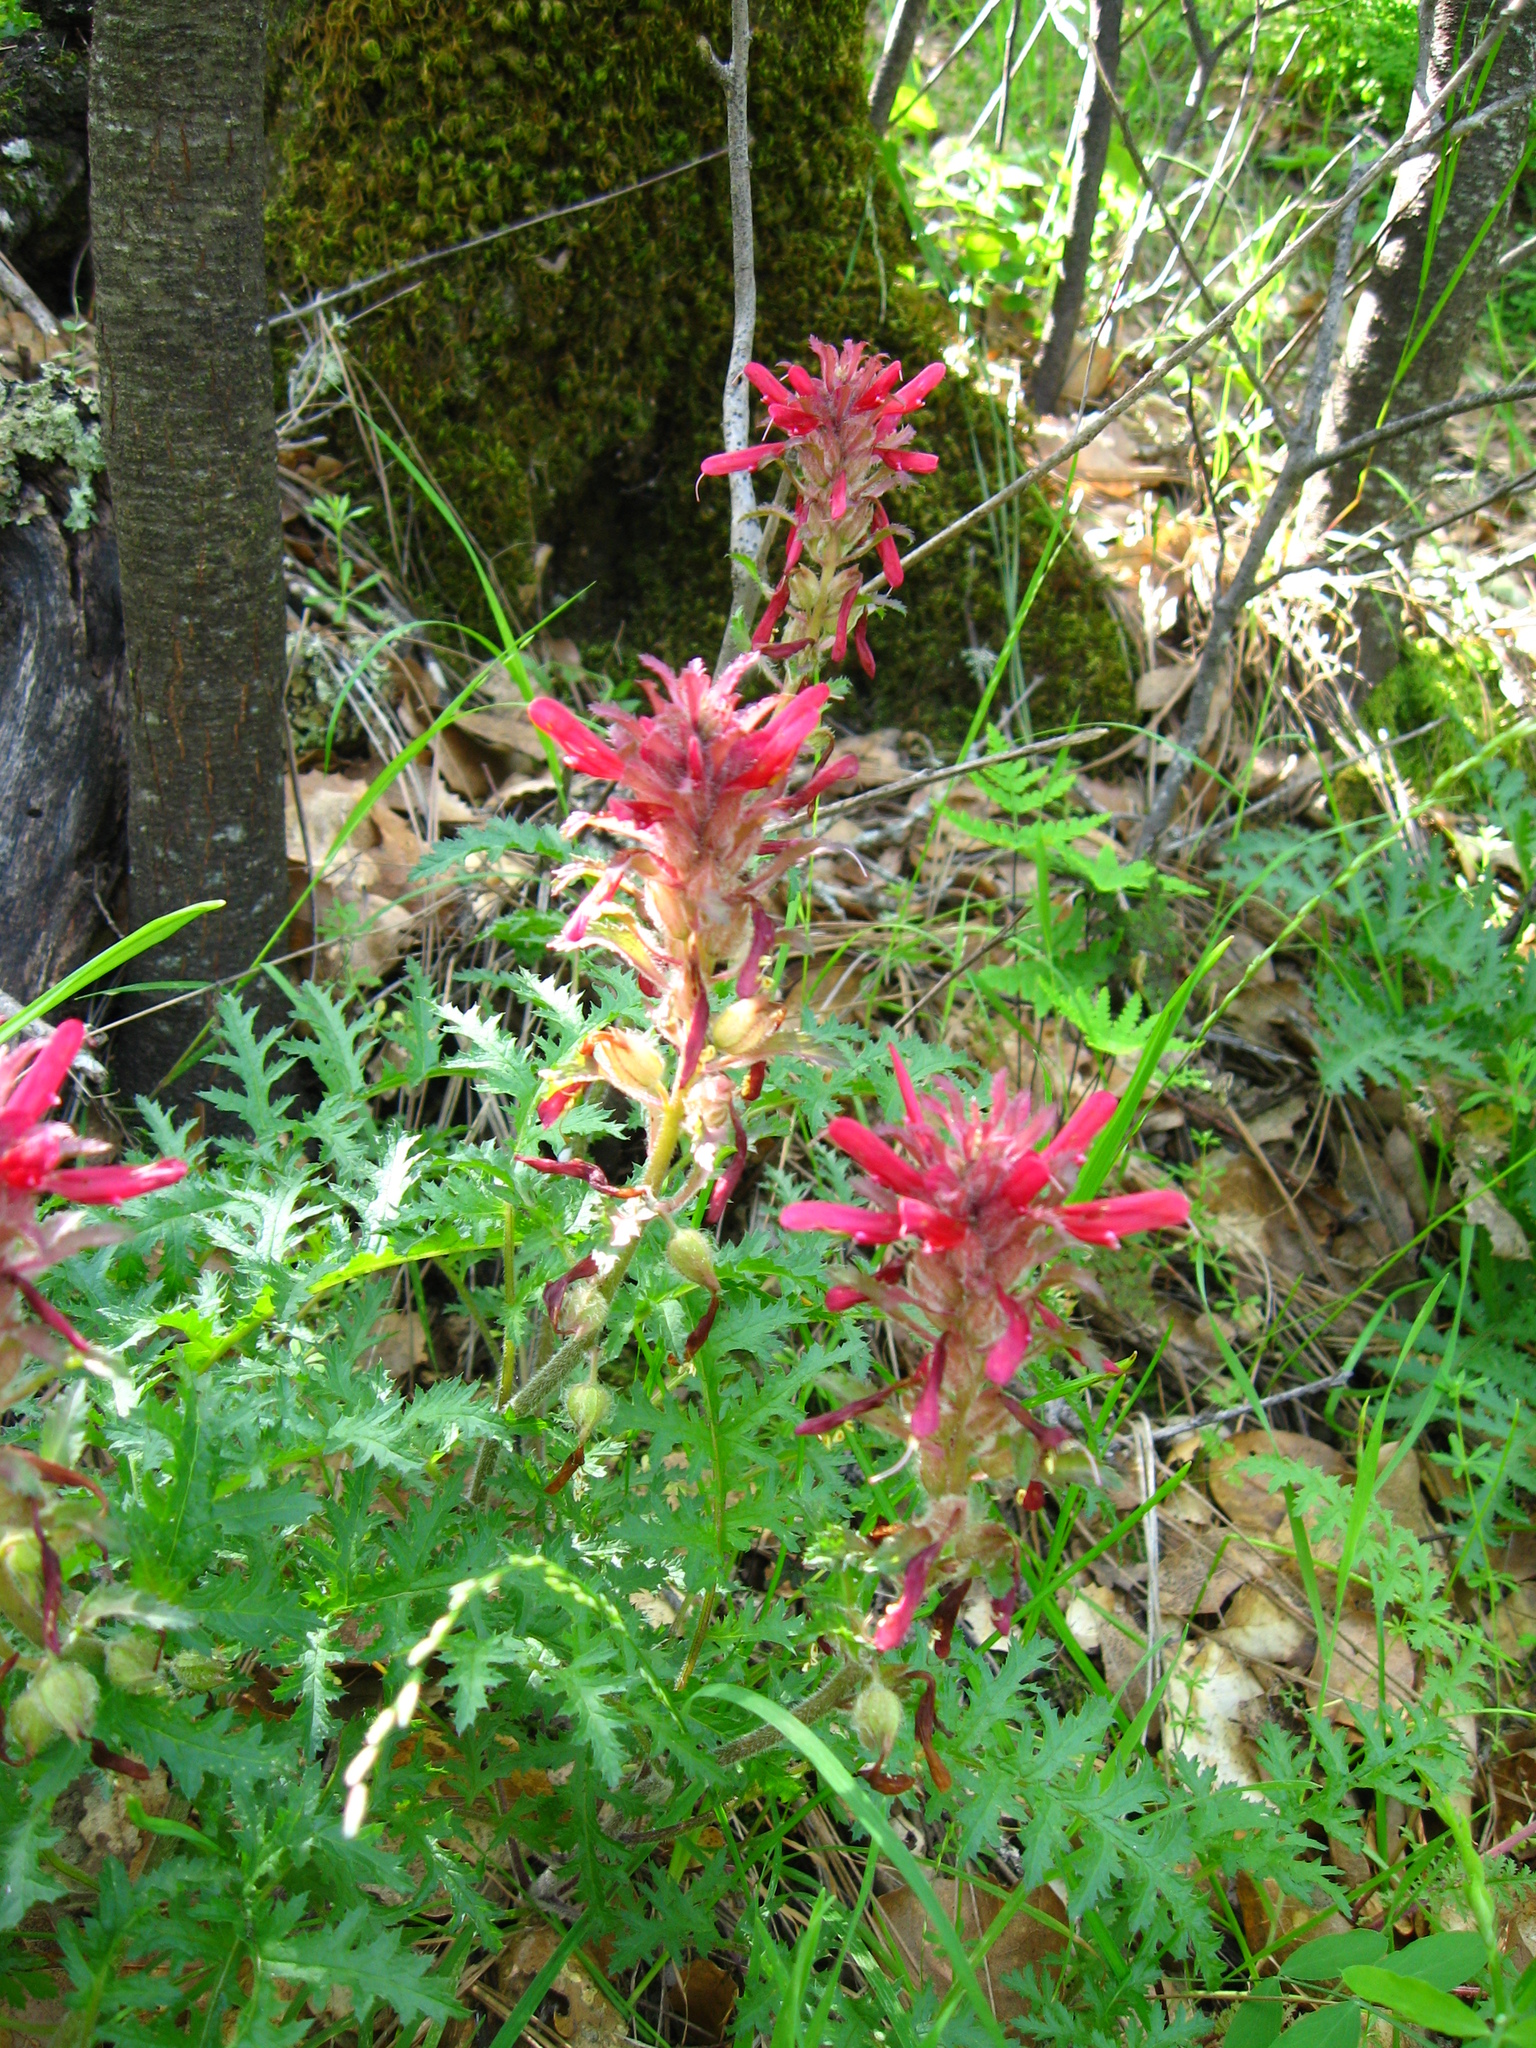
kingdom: Plantae
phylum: Tracheophyta
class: Magnoliopsida
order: Lamiales
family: Orobanchaceae
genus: Pedicularis
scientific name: Pedicularis densiflora
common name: Indian warrior
